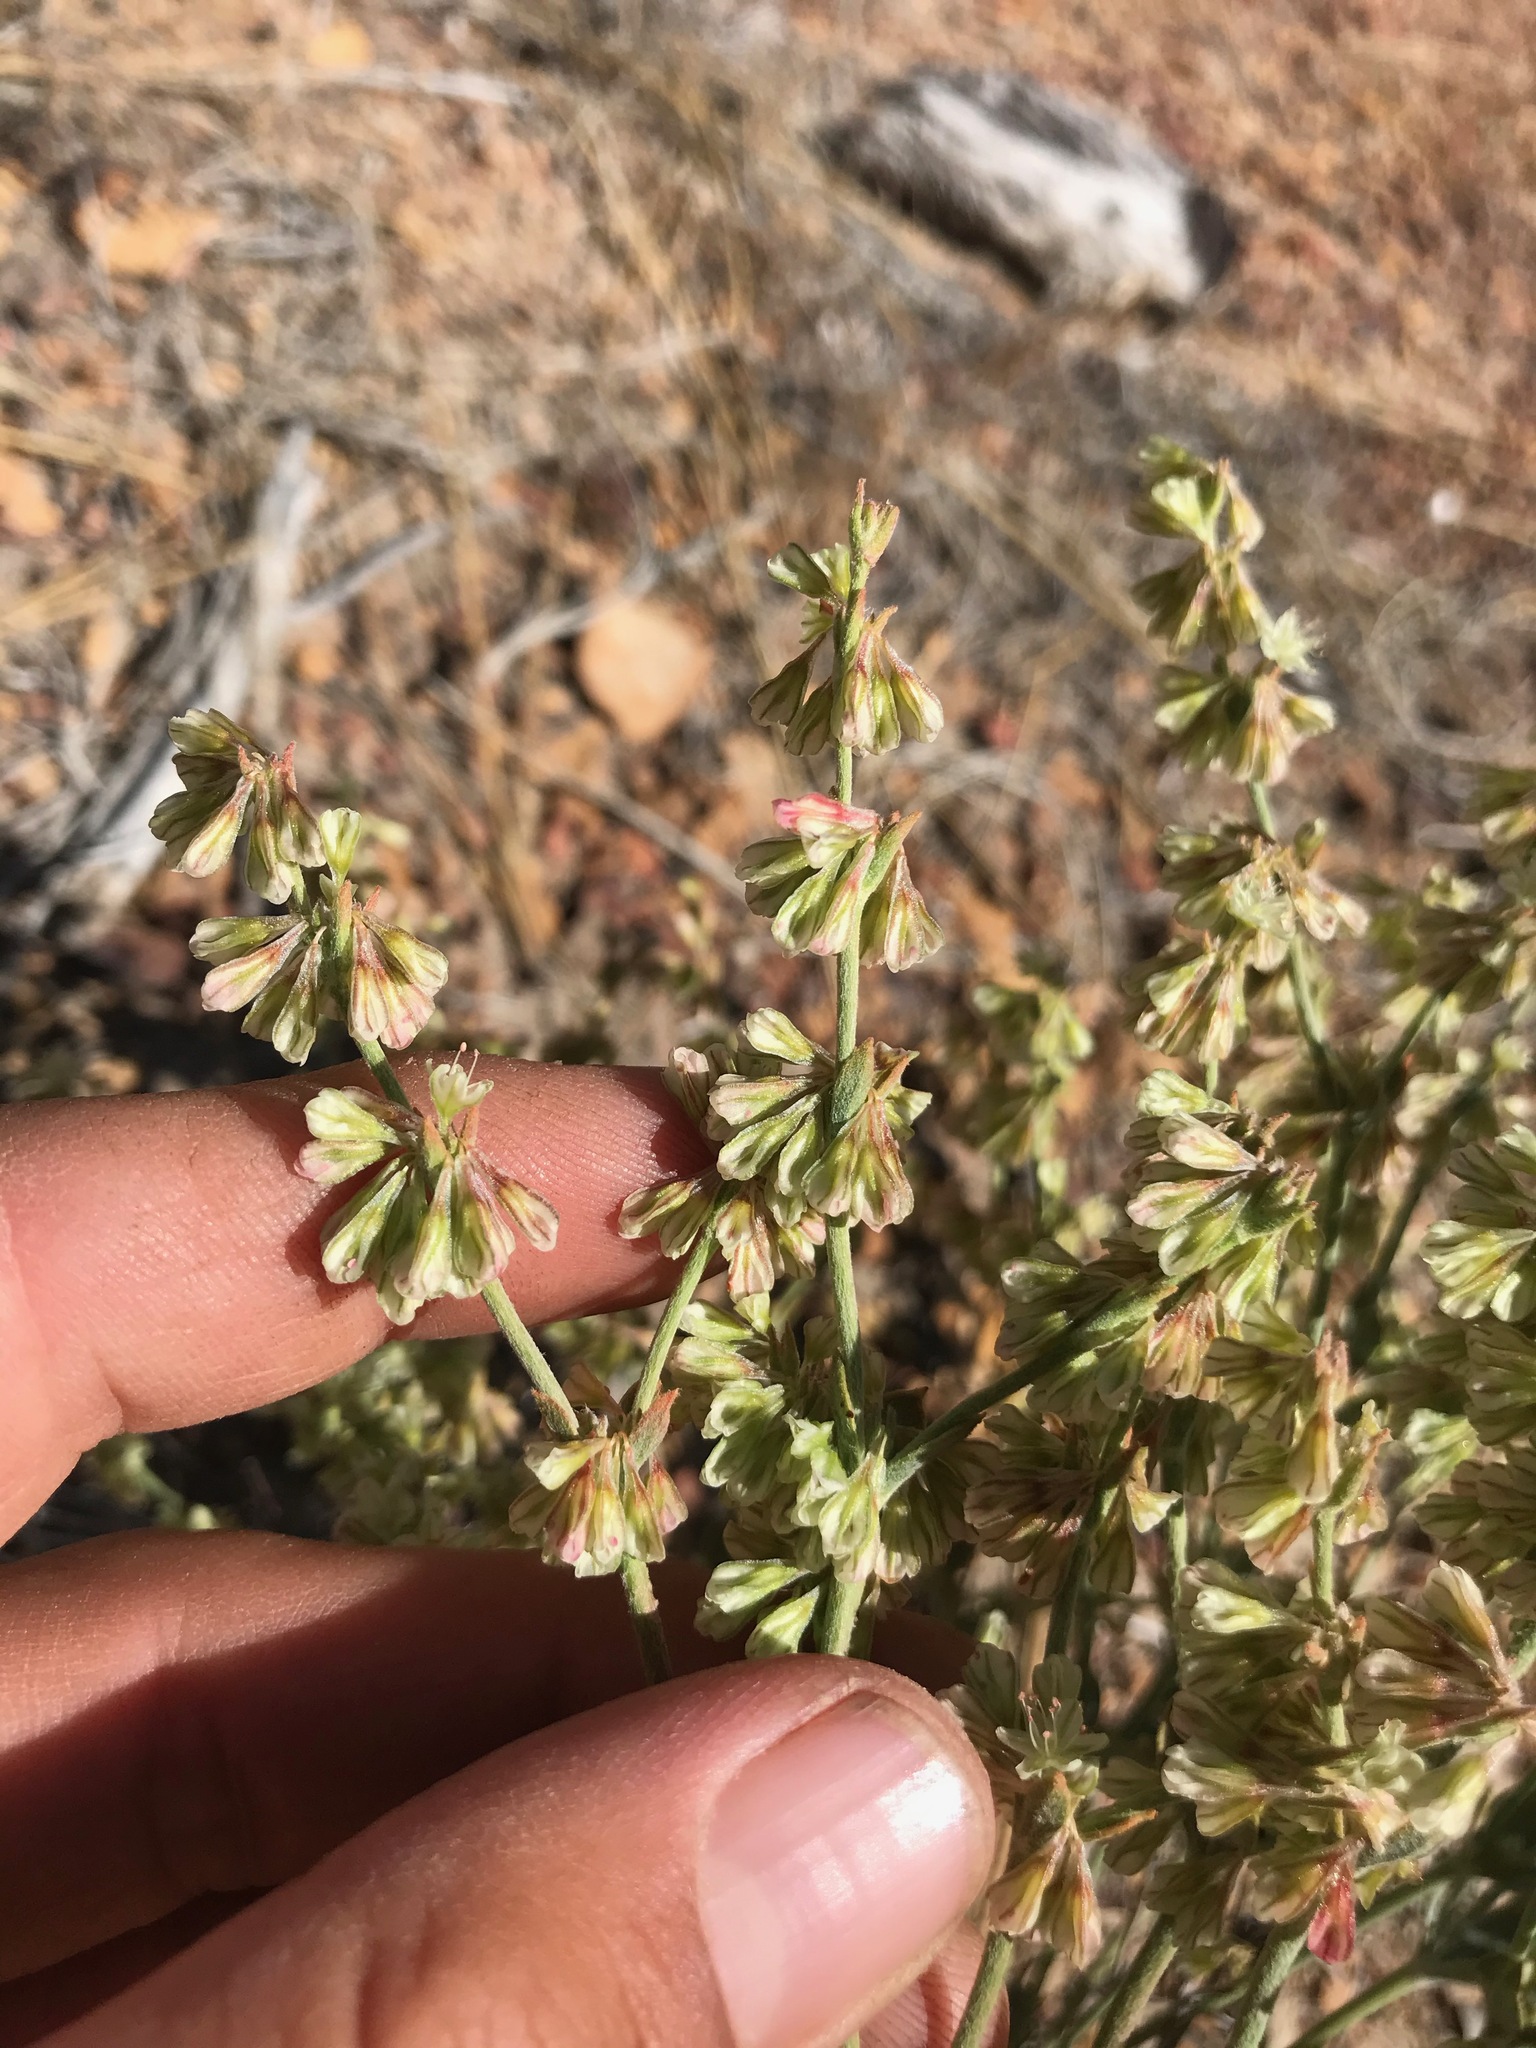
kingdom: Plantae
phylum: Tracheophyta
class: Magnoliopsida
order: Caryophyllales
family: Polygonaceae
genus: Eriogonum
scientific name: Eriogonum saxatile
